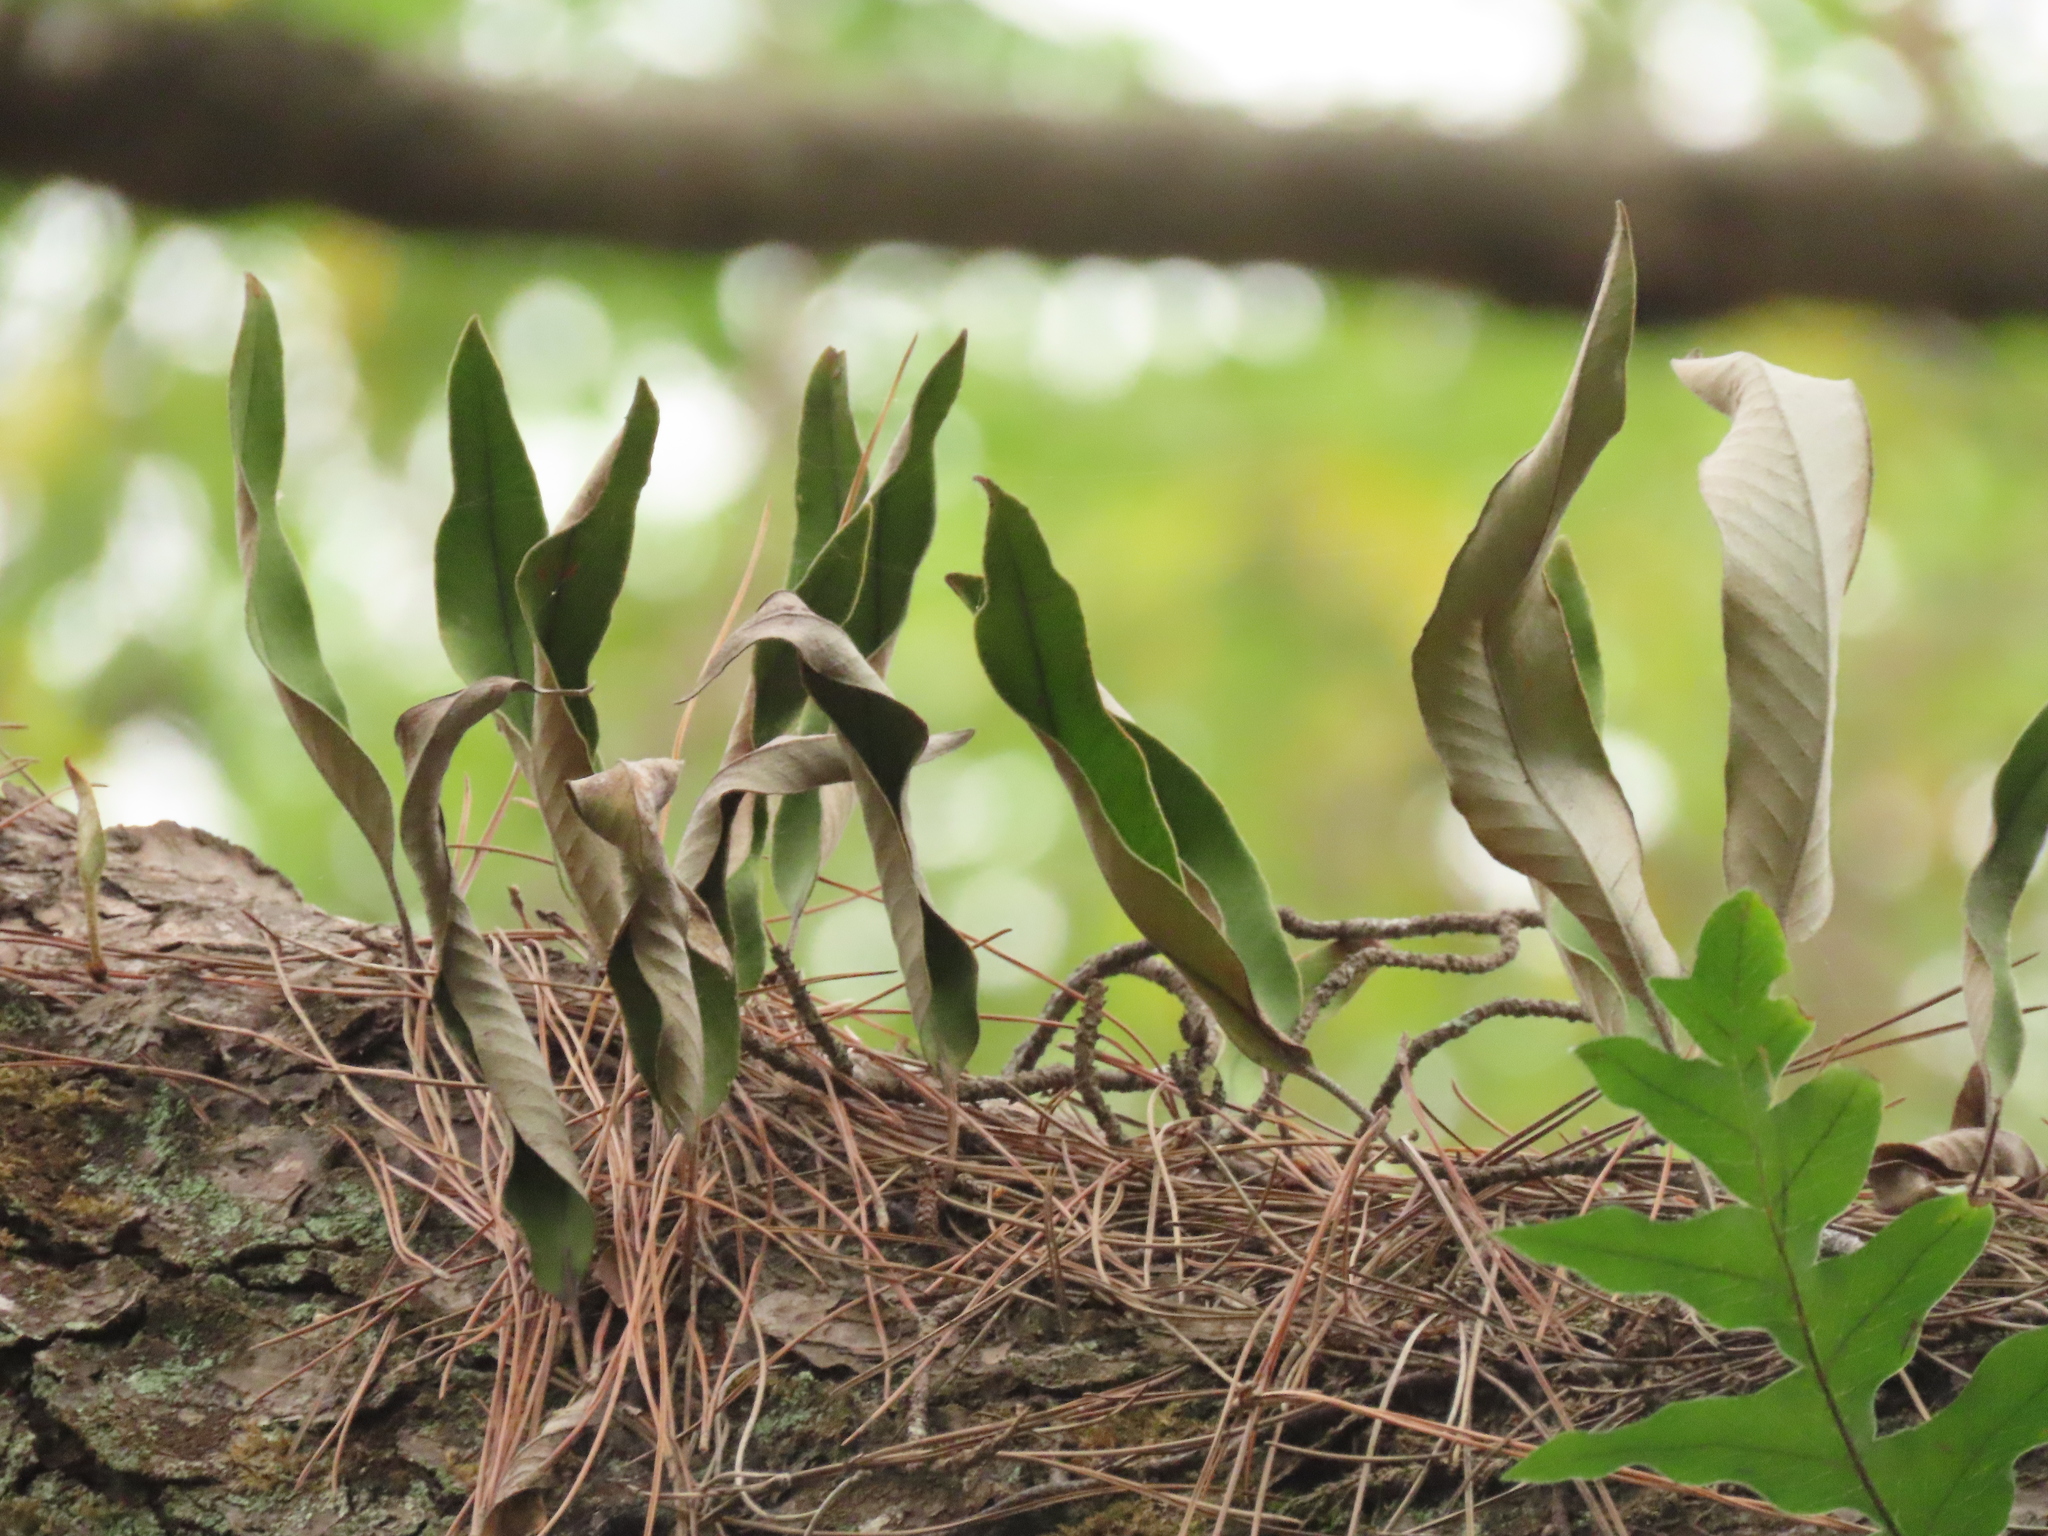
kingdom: Plantae
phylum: Tracheophyta
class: Polypodiopsida
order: Polypodiales
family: Polypodiaceae
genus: Pyrrosia
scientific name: Pyrrosia lingua
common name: Felt fern
